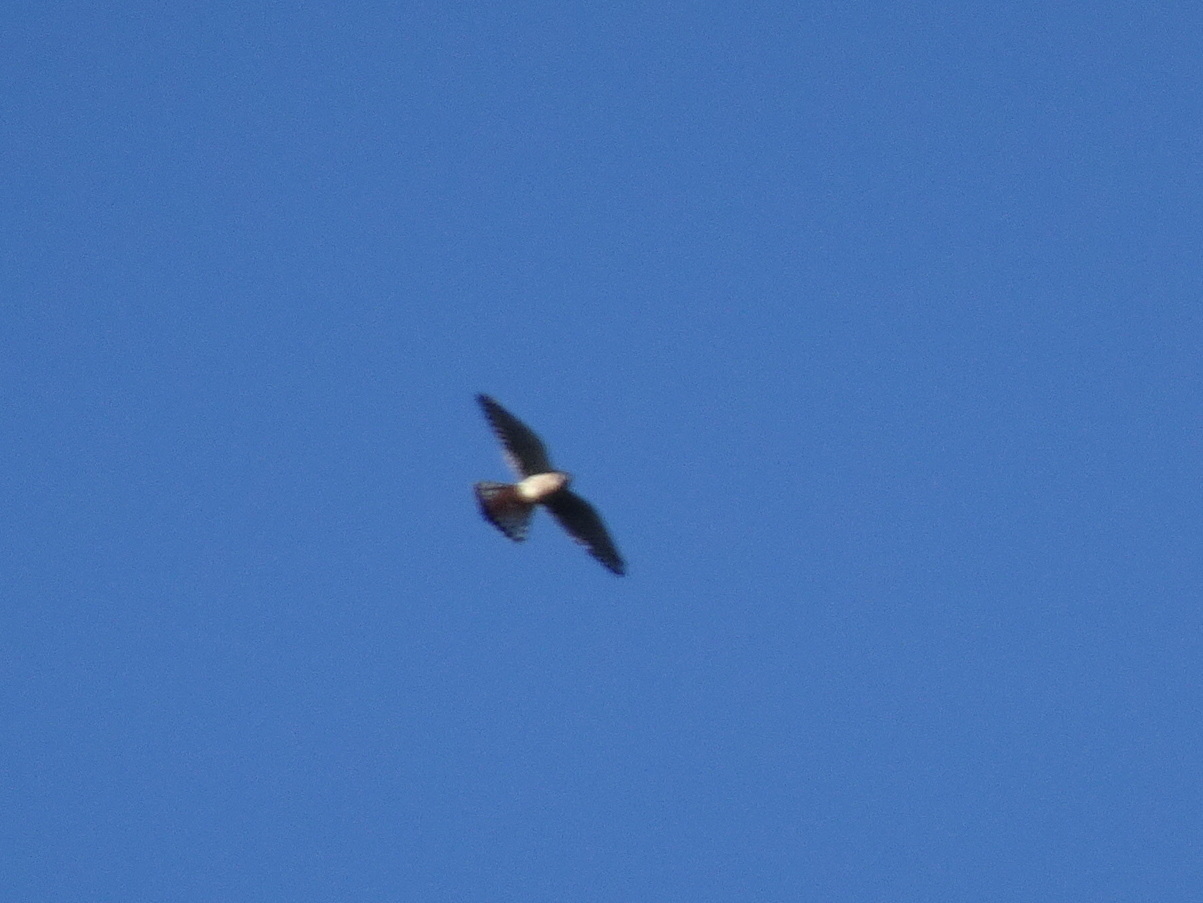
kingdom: Animalia
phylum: Chordata
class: Aves
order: Falconiformes
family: Falconidae
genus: Falco
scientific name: Falco sparverius
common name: American kestrel
